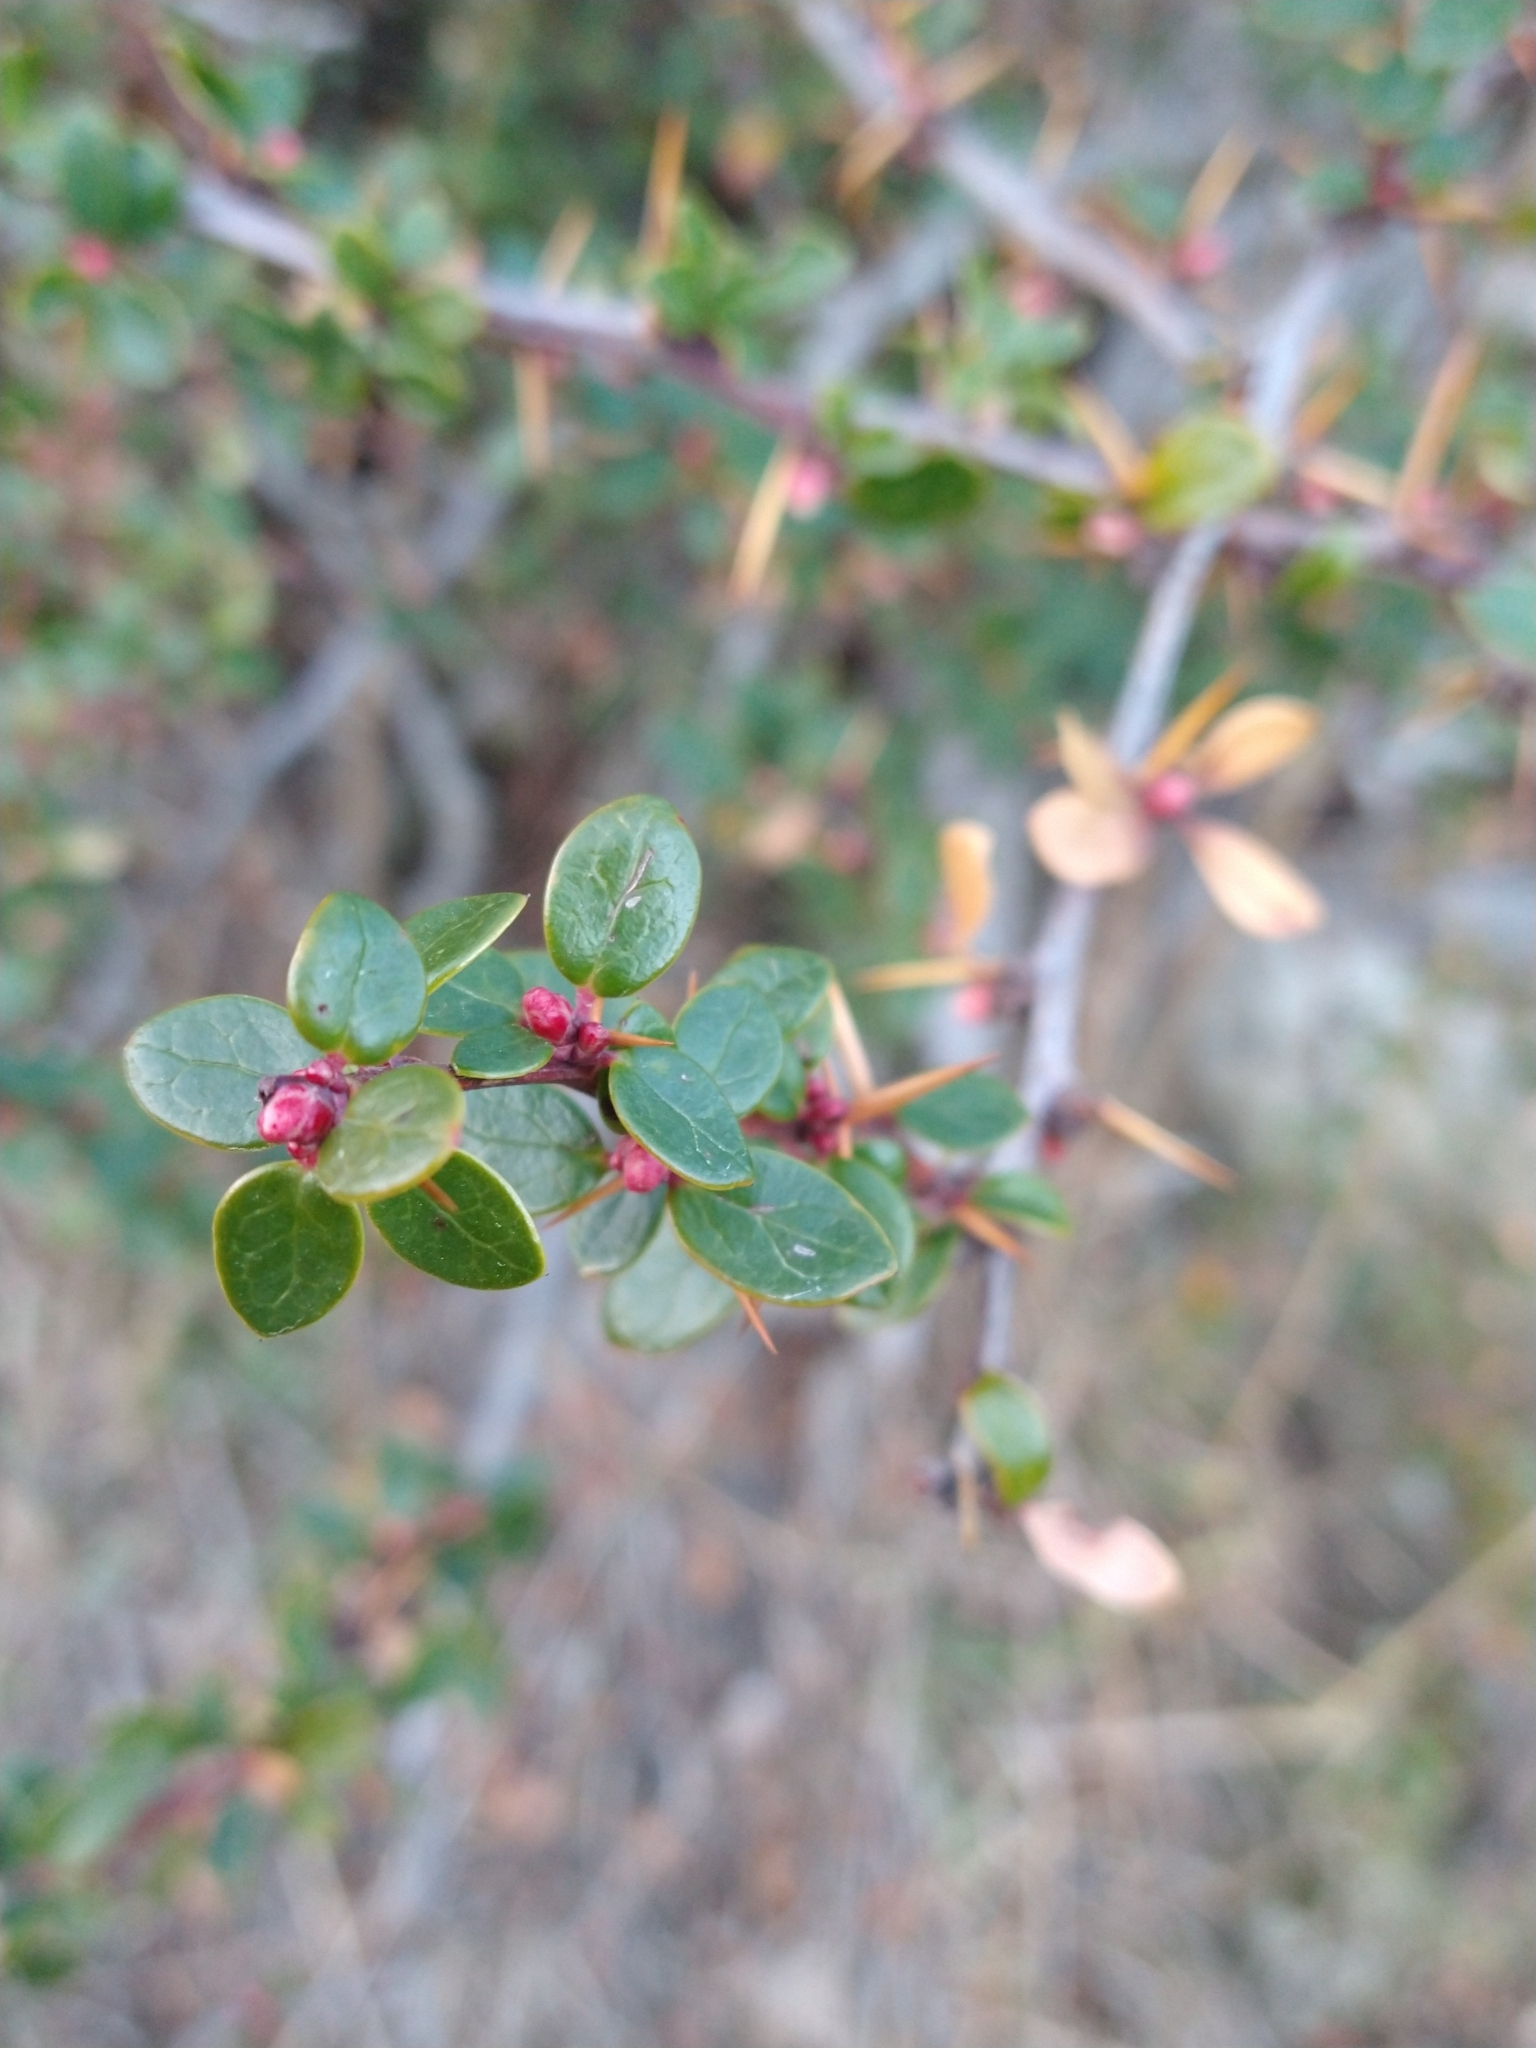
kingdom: Plantae
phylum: Tracheophyta
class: Magnoliopsida
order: Ranunculales
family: Berberidaceae
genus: Berberis
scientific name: Berberis microphylla
